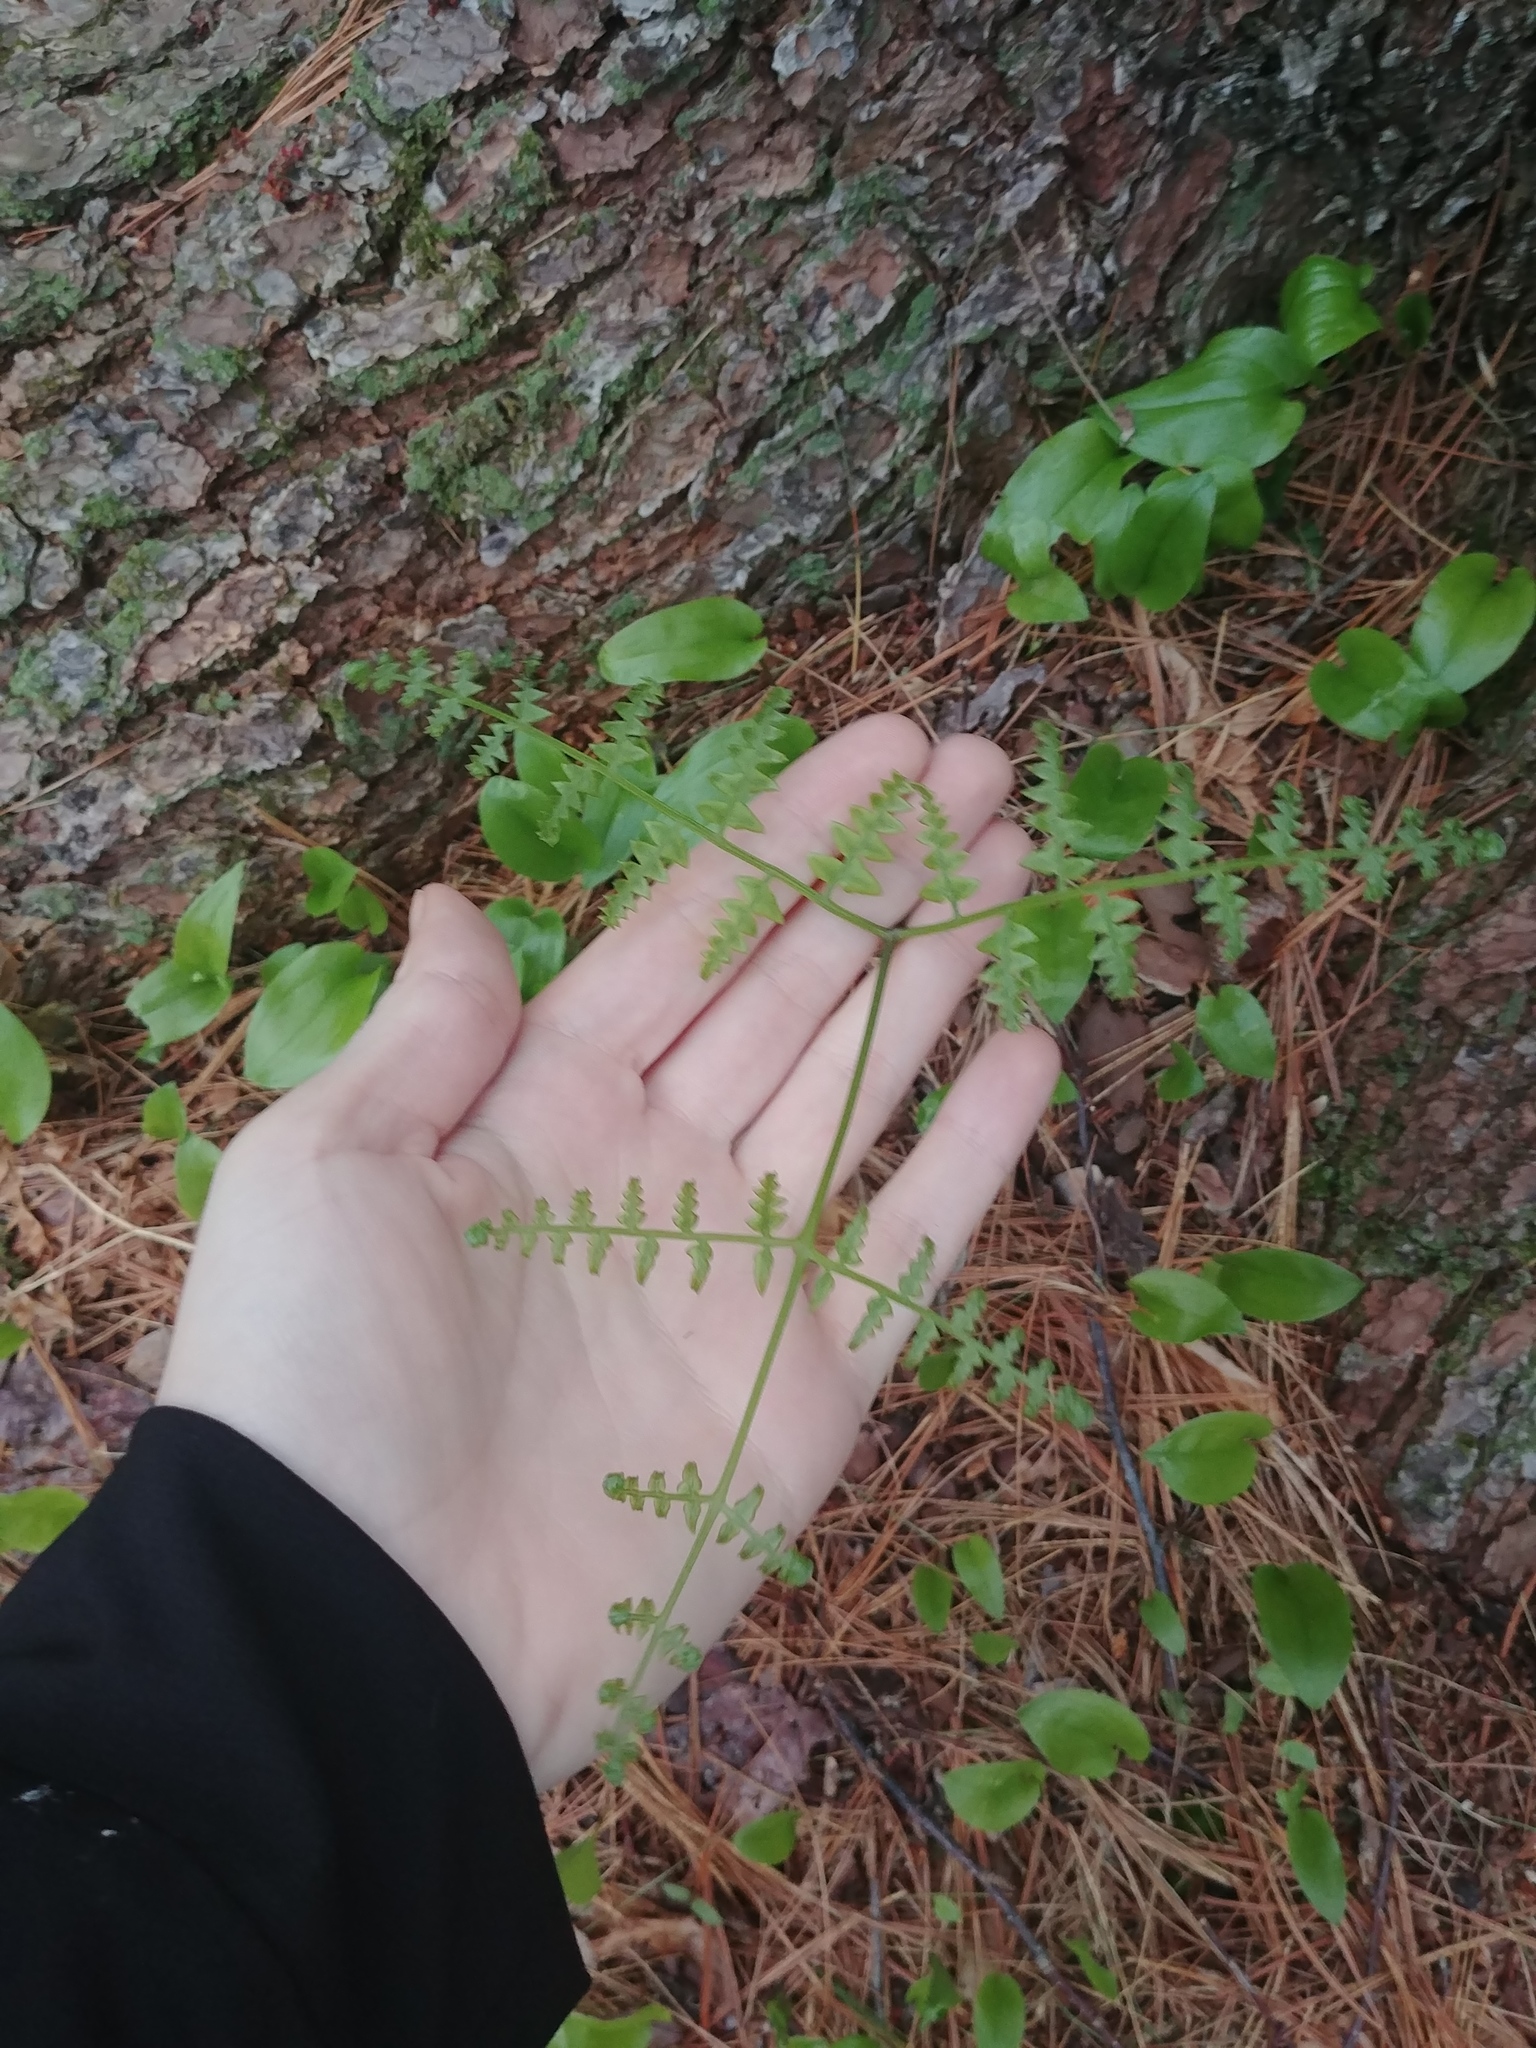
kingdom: Plantae
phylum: Tracheophyta
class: Polypodiopsida
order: Polypodiales
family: Dennstaedtiaceae
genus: Pteridium
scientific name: Pteridium aquilinum
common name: Bracken
